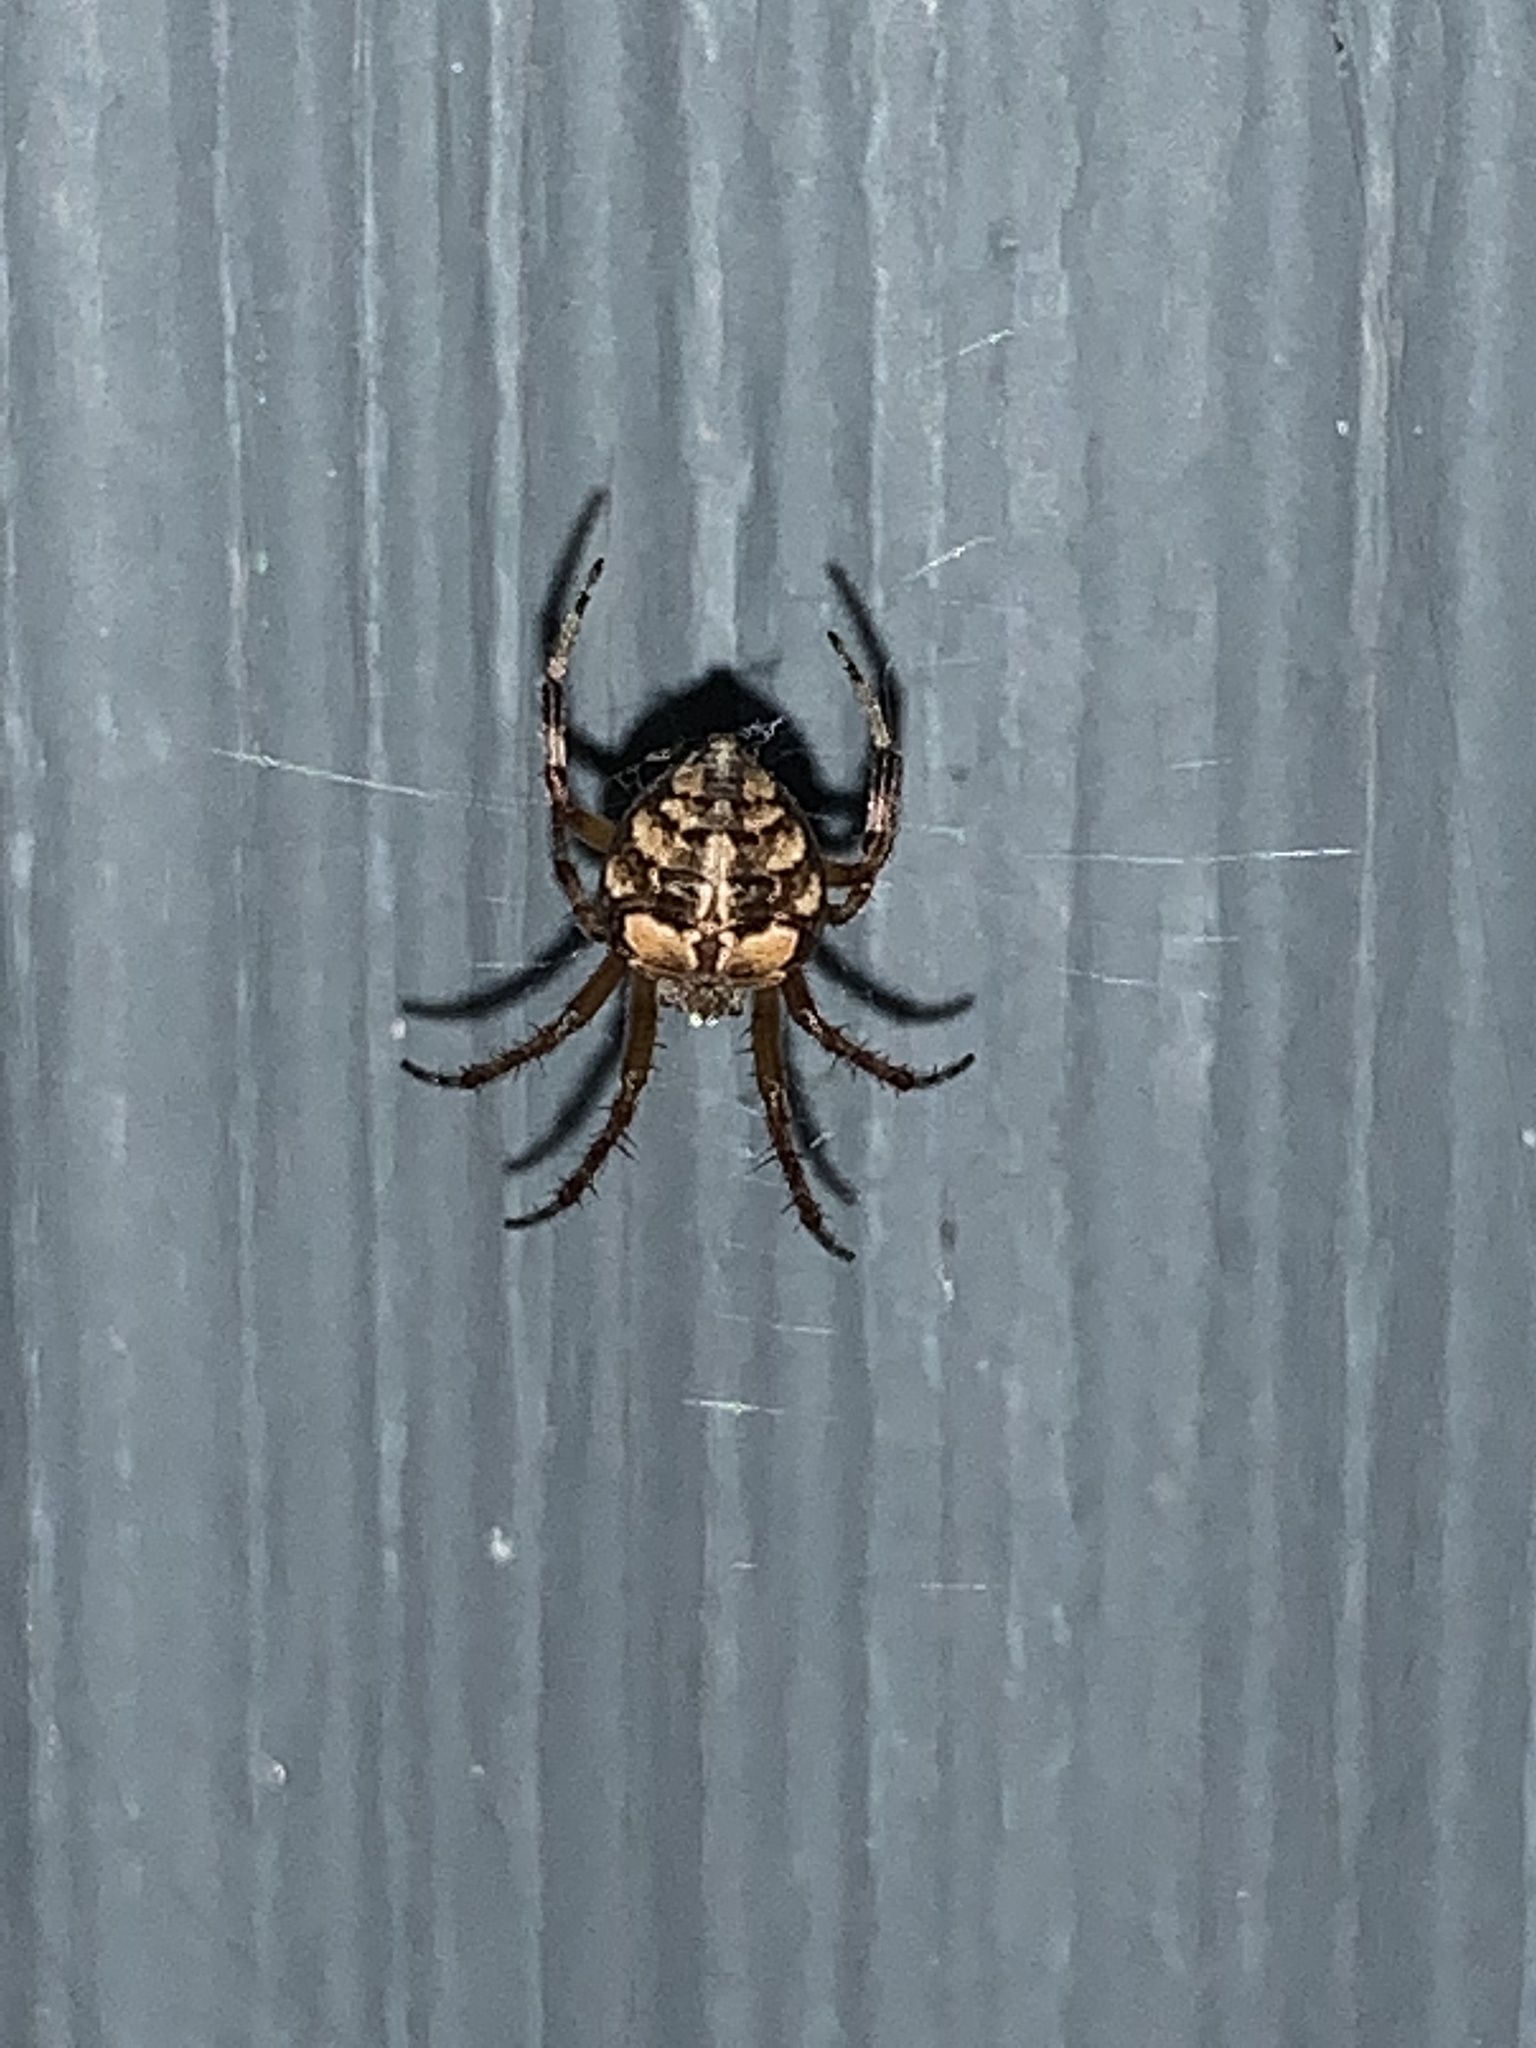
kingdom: Animalia
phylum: Arthropoda
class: Arachnida
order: Araneae
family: Araneidae
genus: Araneus
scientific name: Araneus pegnia
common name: Orb weavers
